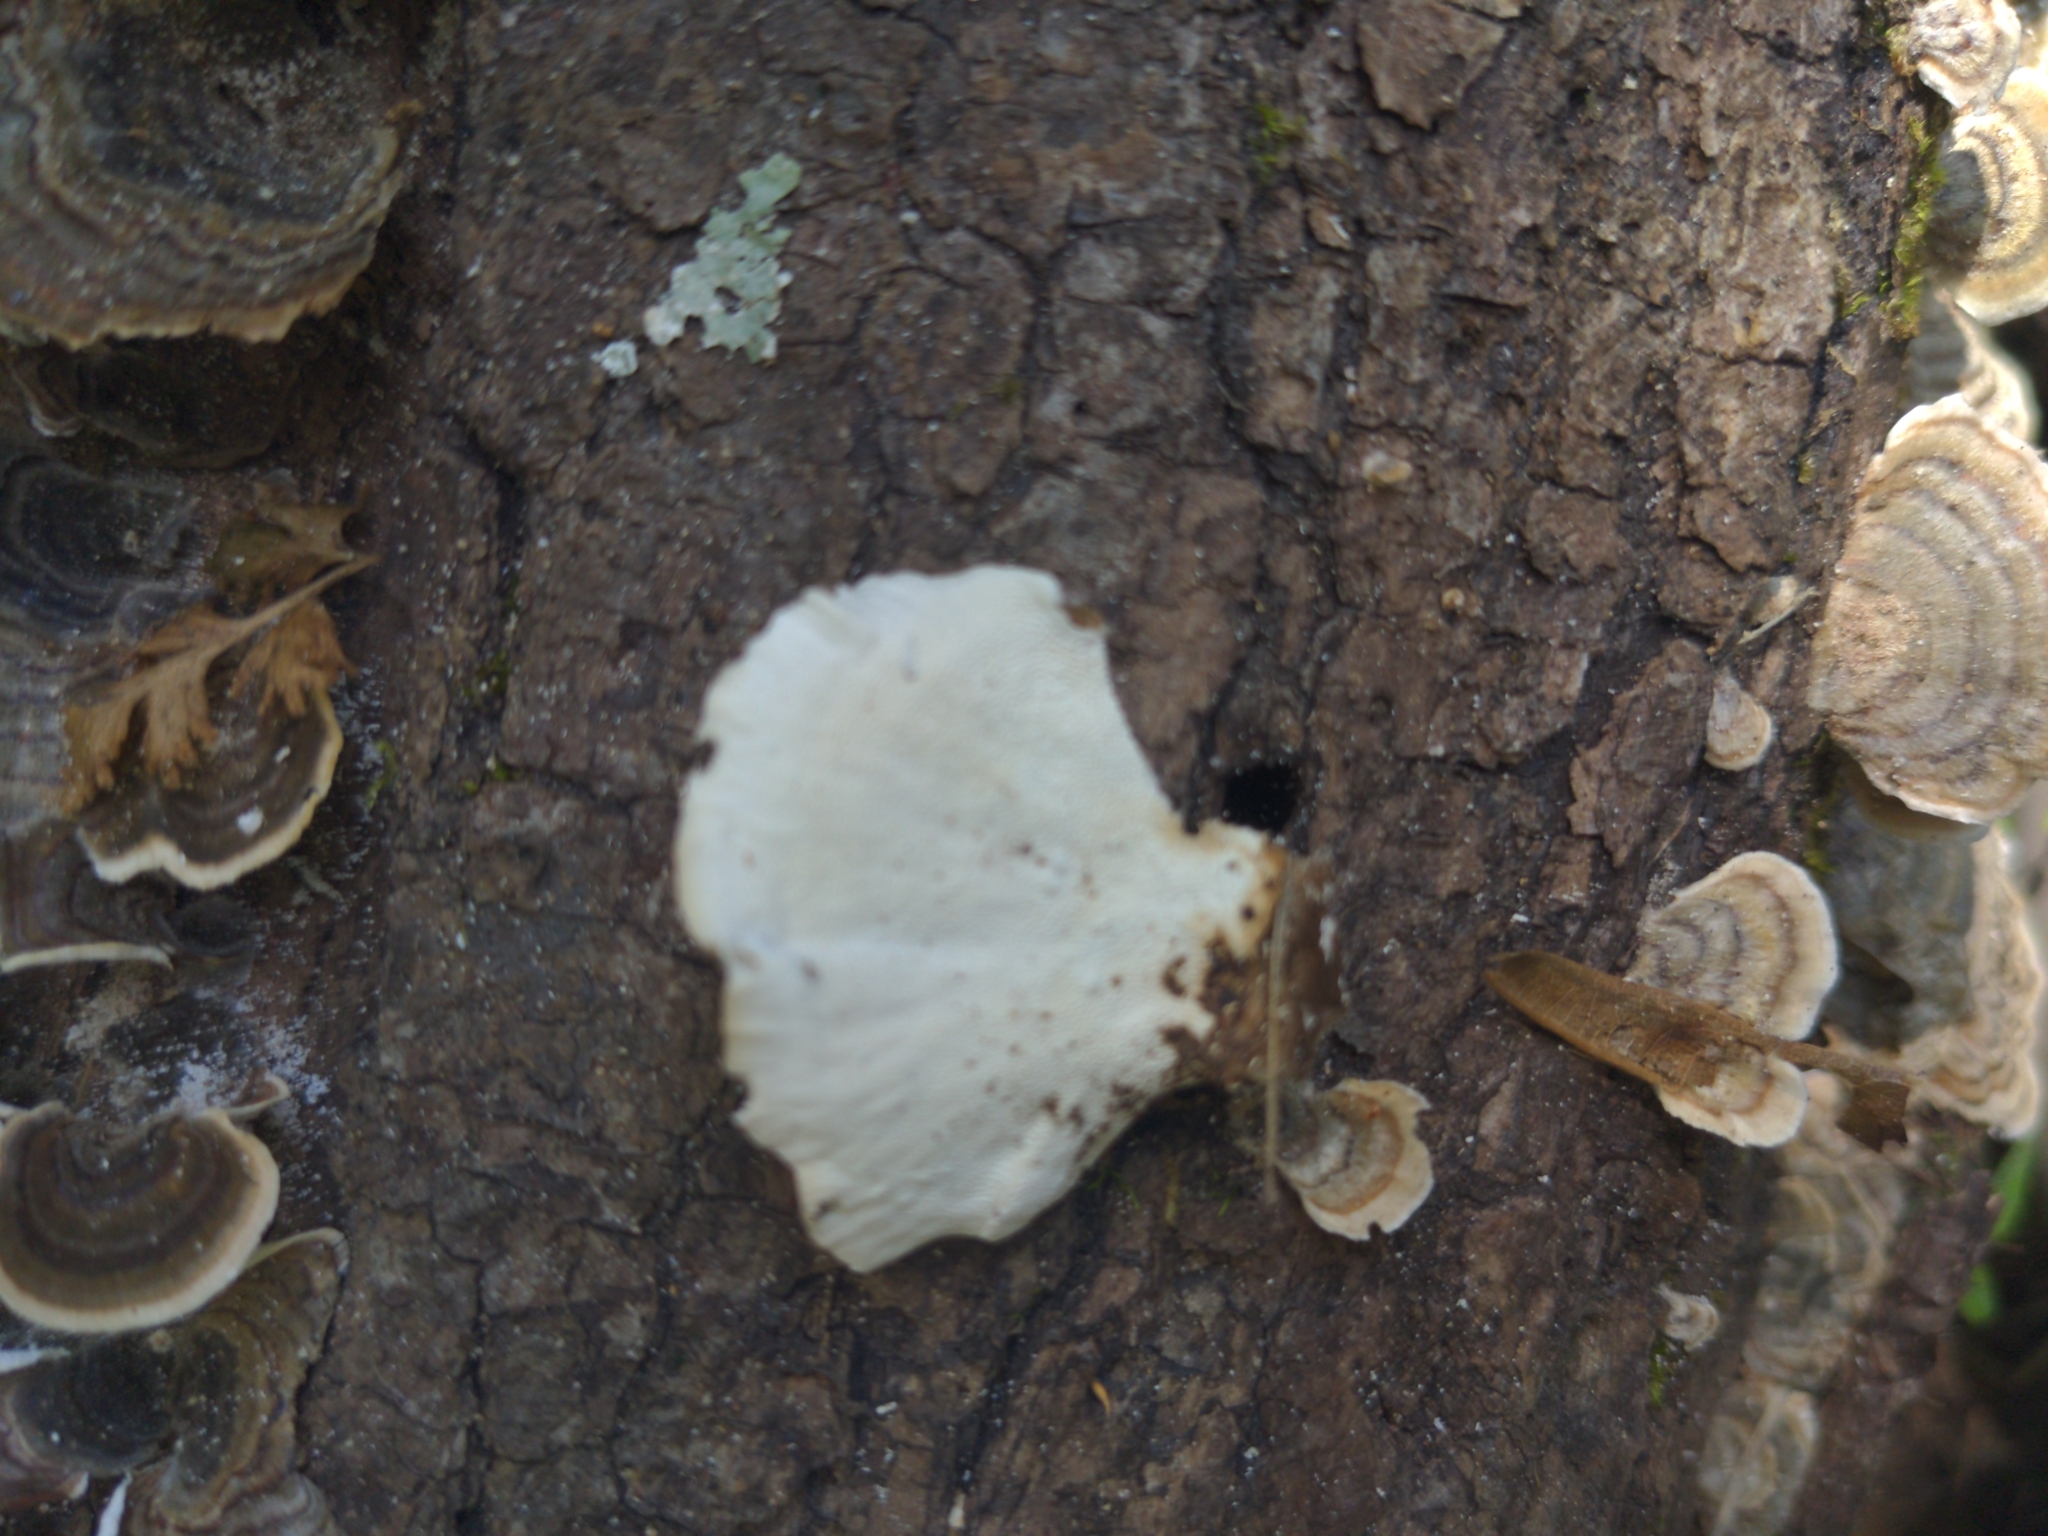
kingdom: Fungi
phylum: Basidiomycota
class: Agaricomycetes
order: Polyporales
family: Polyporaceae
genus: Trametes
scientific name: Trametes versicolor
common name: Turkeytail
